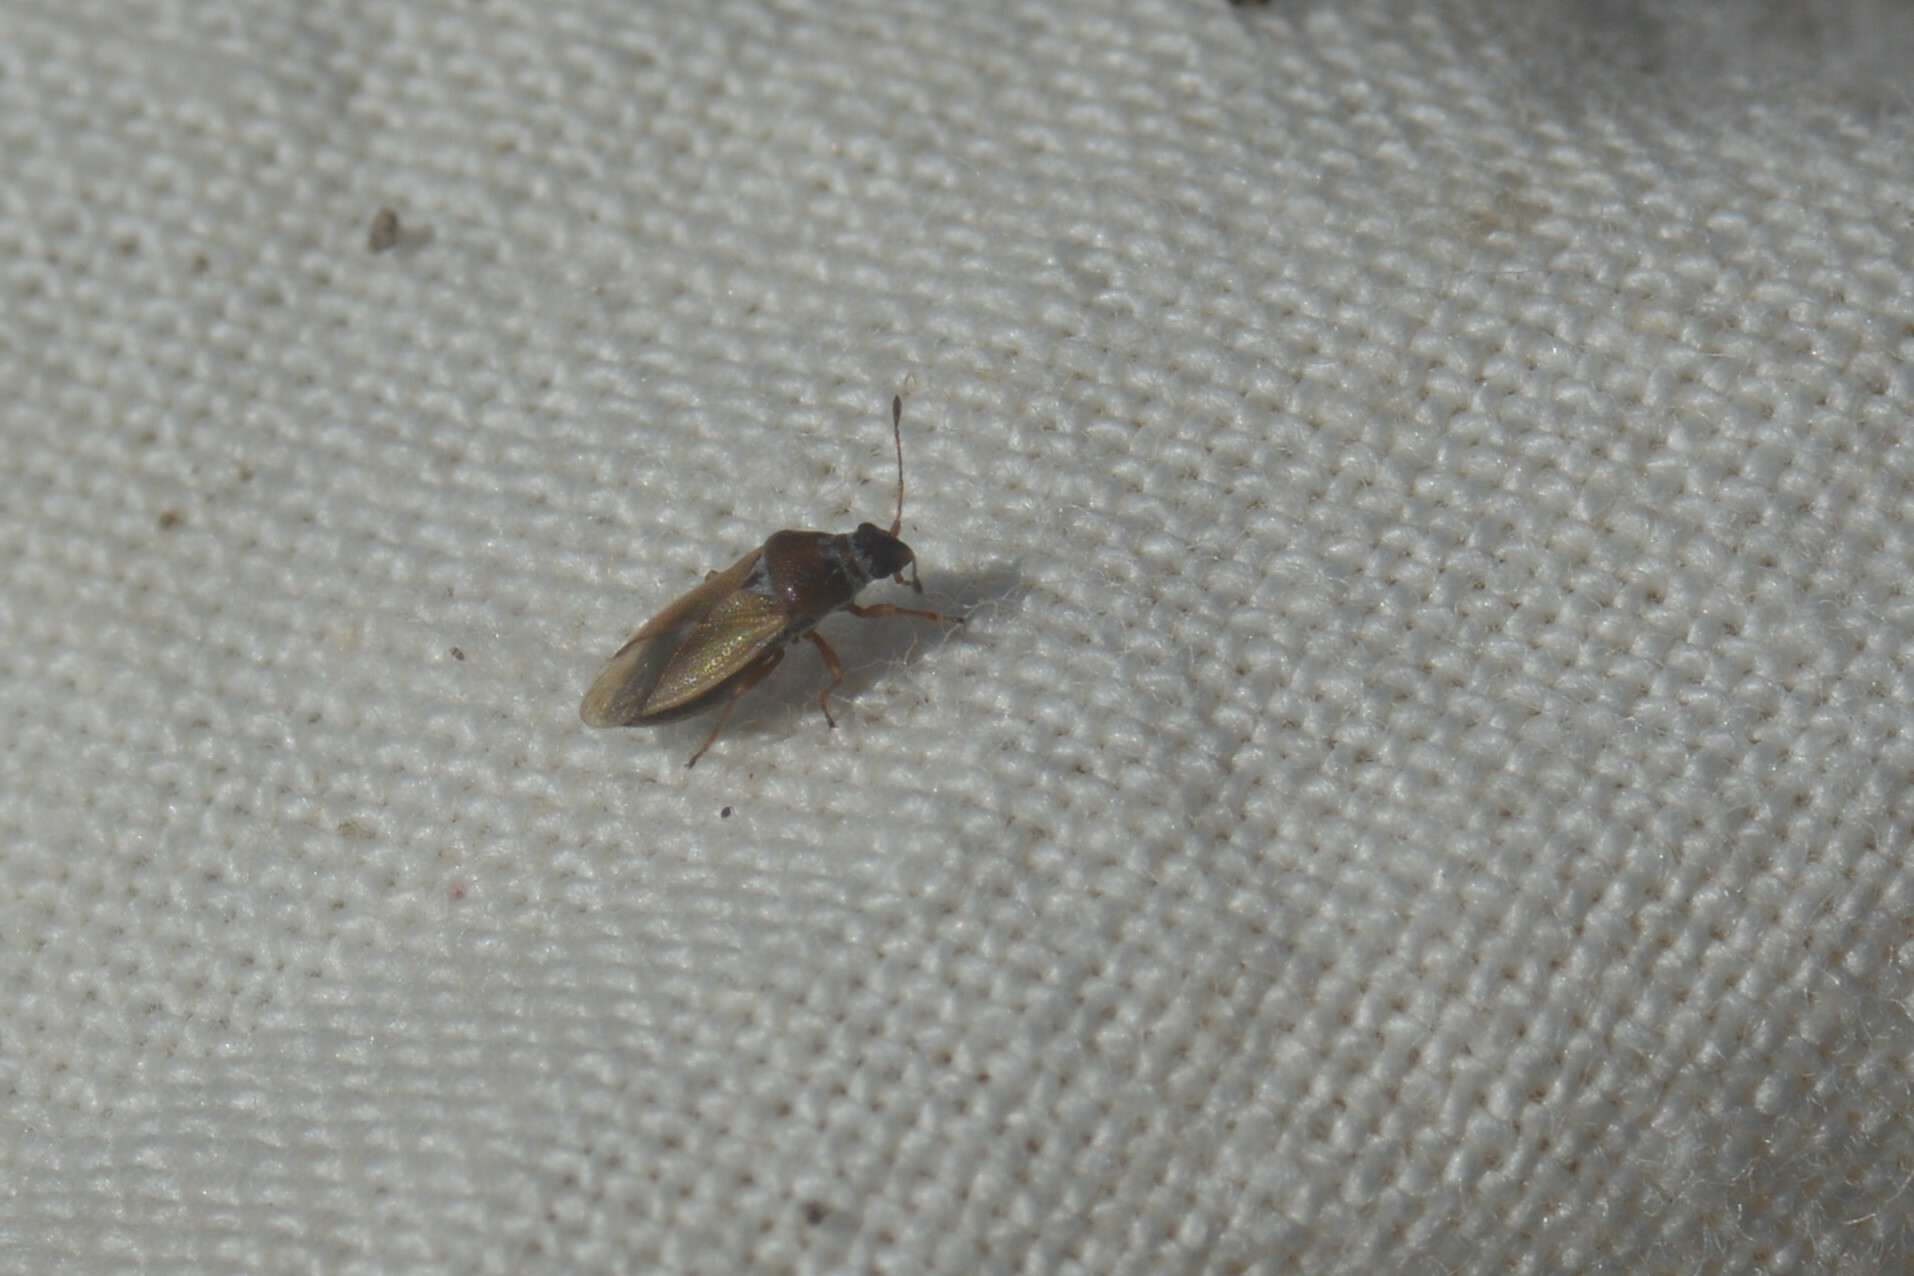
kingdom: Animalia
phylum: Arthropoda
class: Insecta
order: Hemiptera
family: Cymidae
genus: Cymus
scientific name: Cymus melanocephalus
